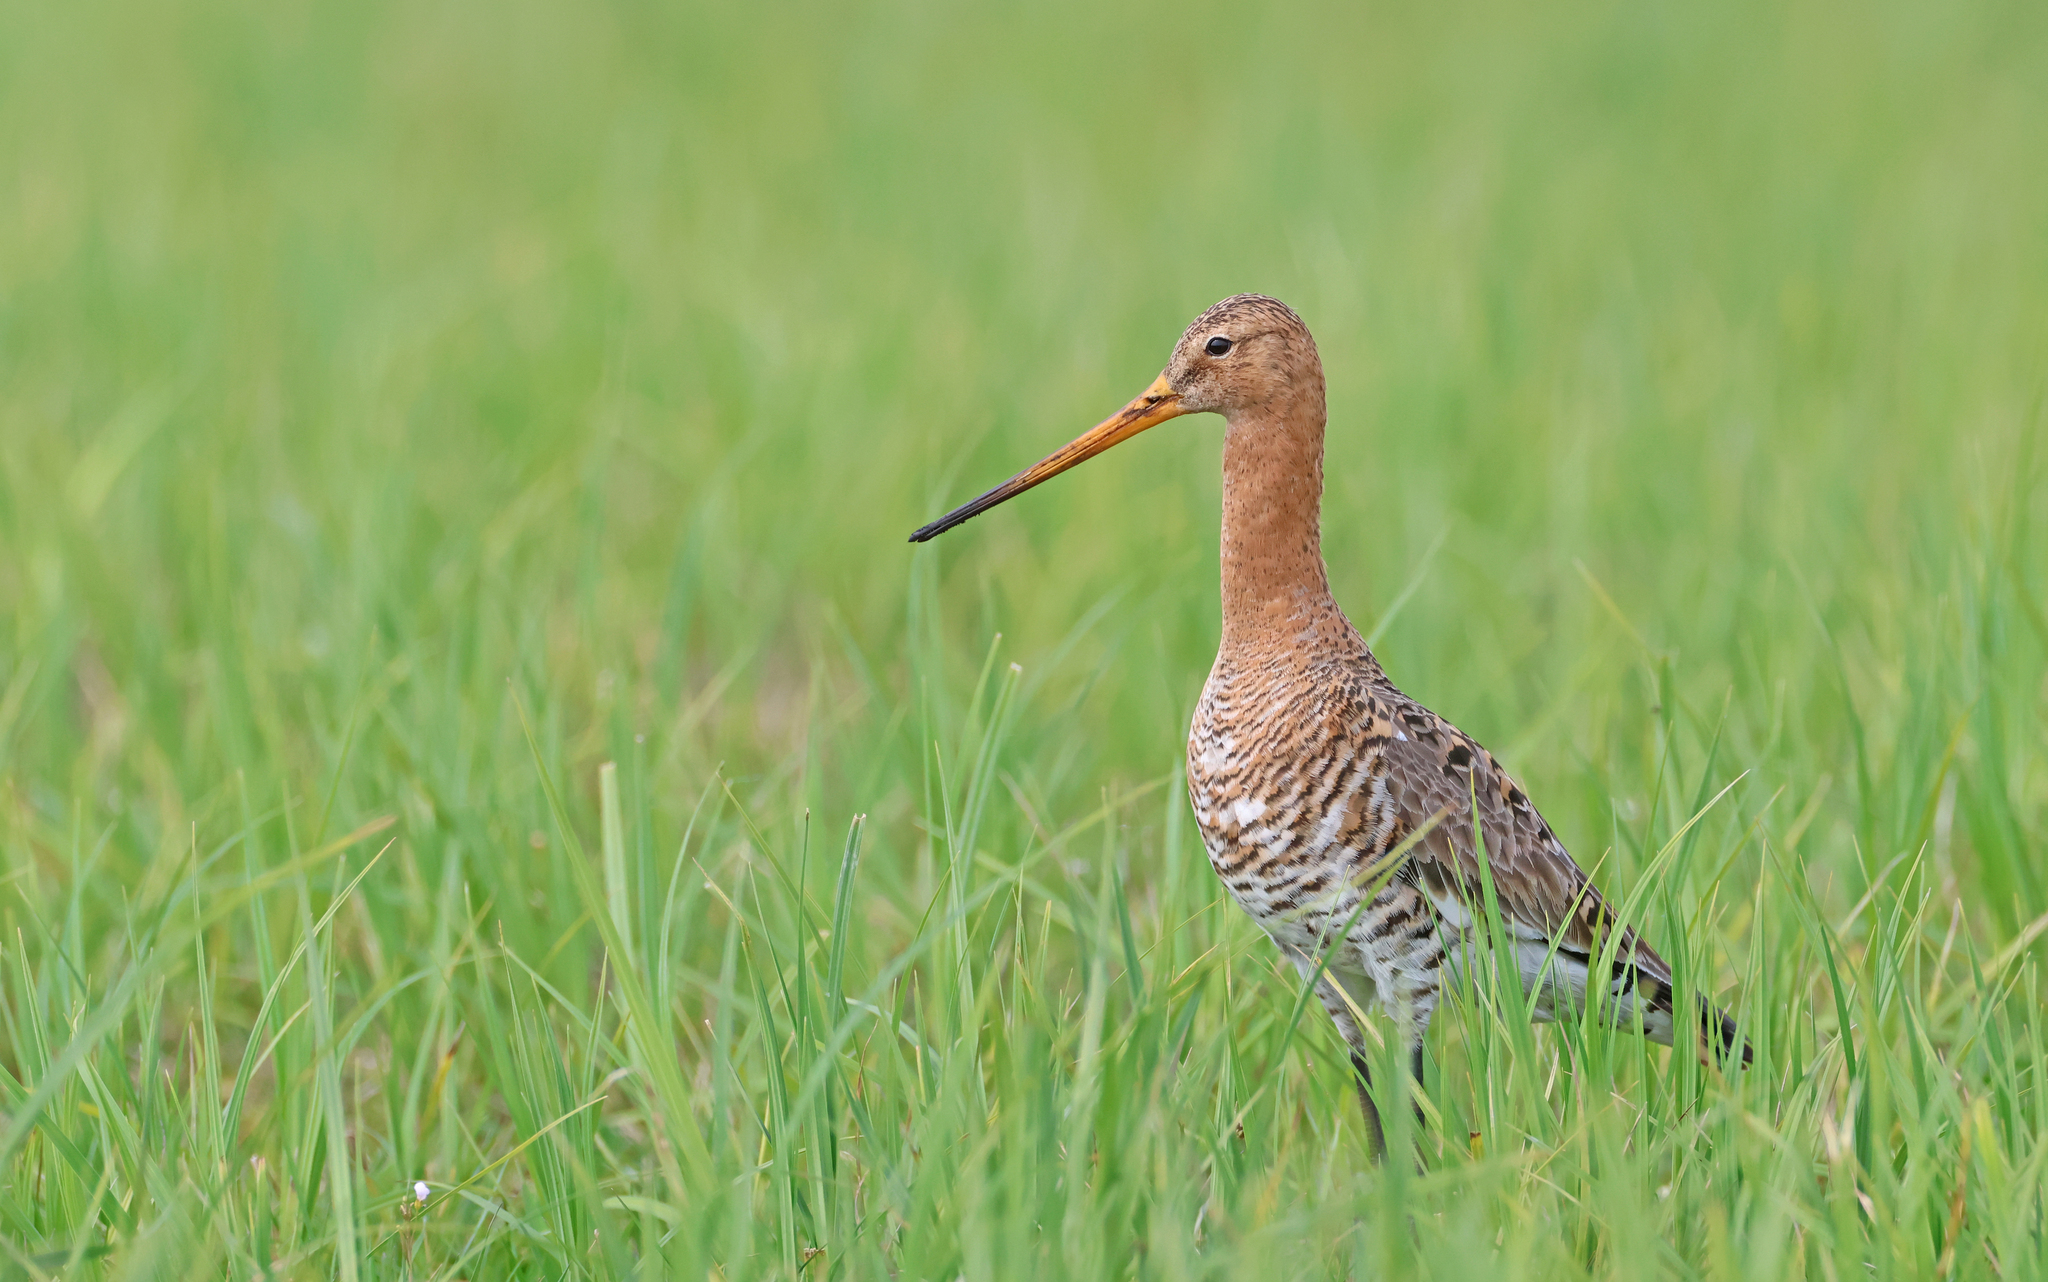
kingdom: Animalia
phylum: Chordata
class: Aves
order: Charadriiformes
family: Scolopacidae
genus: Limosa
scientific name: Limosa limosa
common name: Black-tailed godwit
